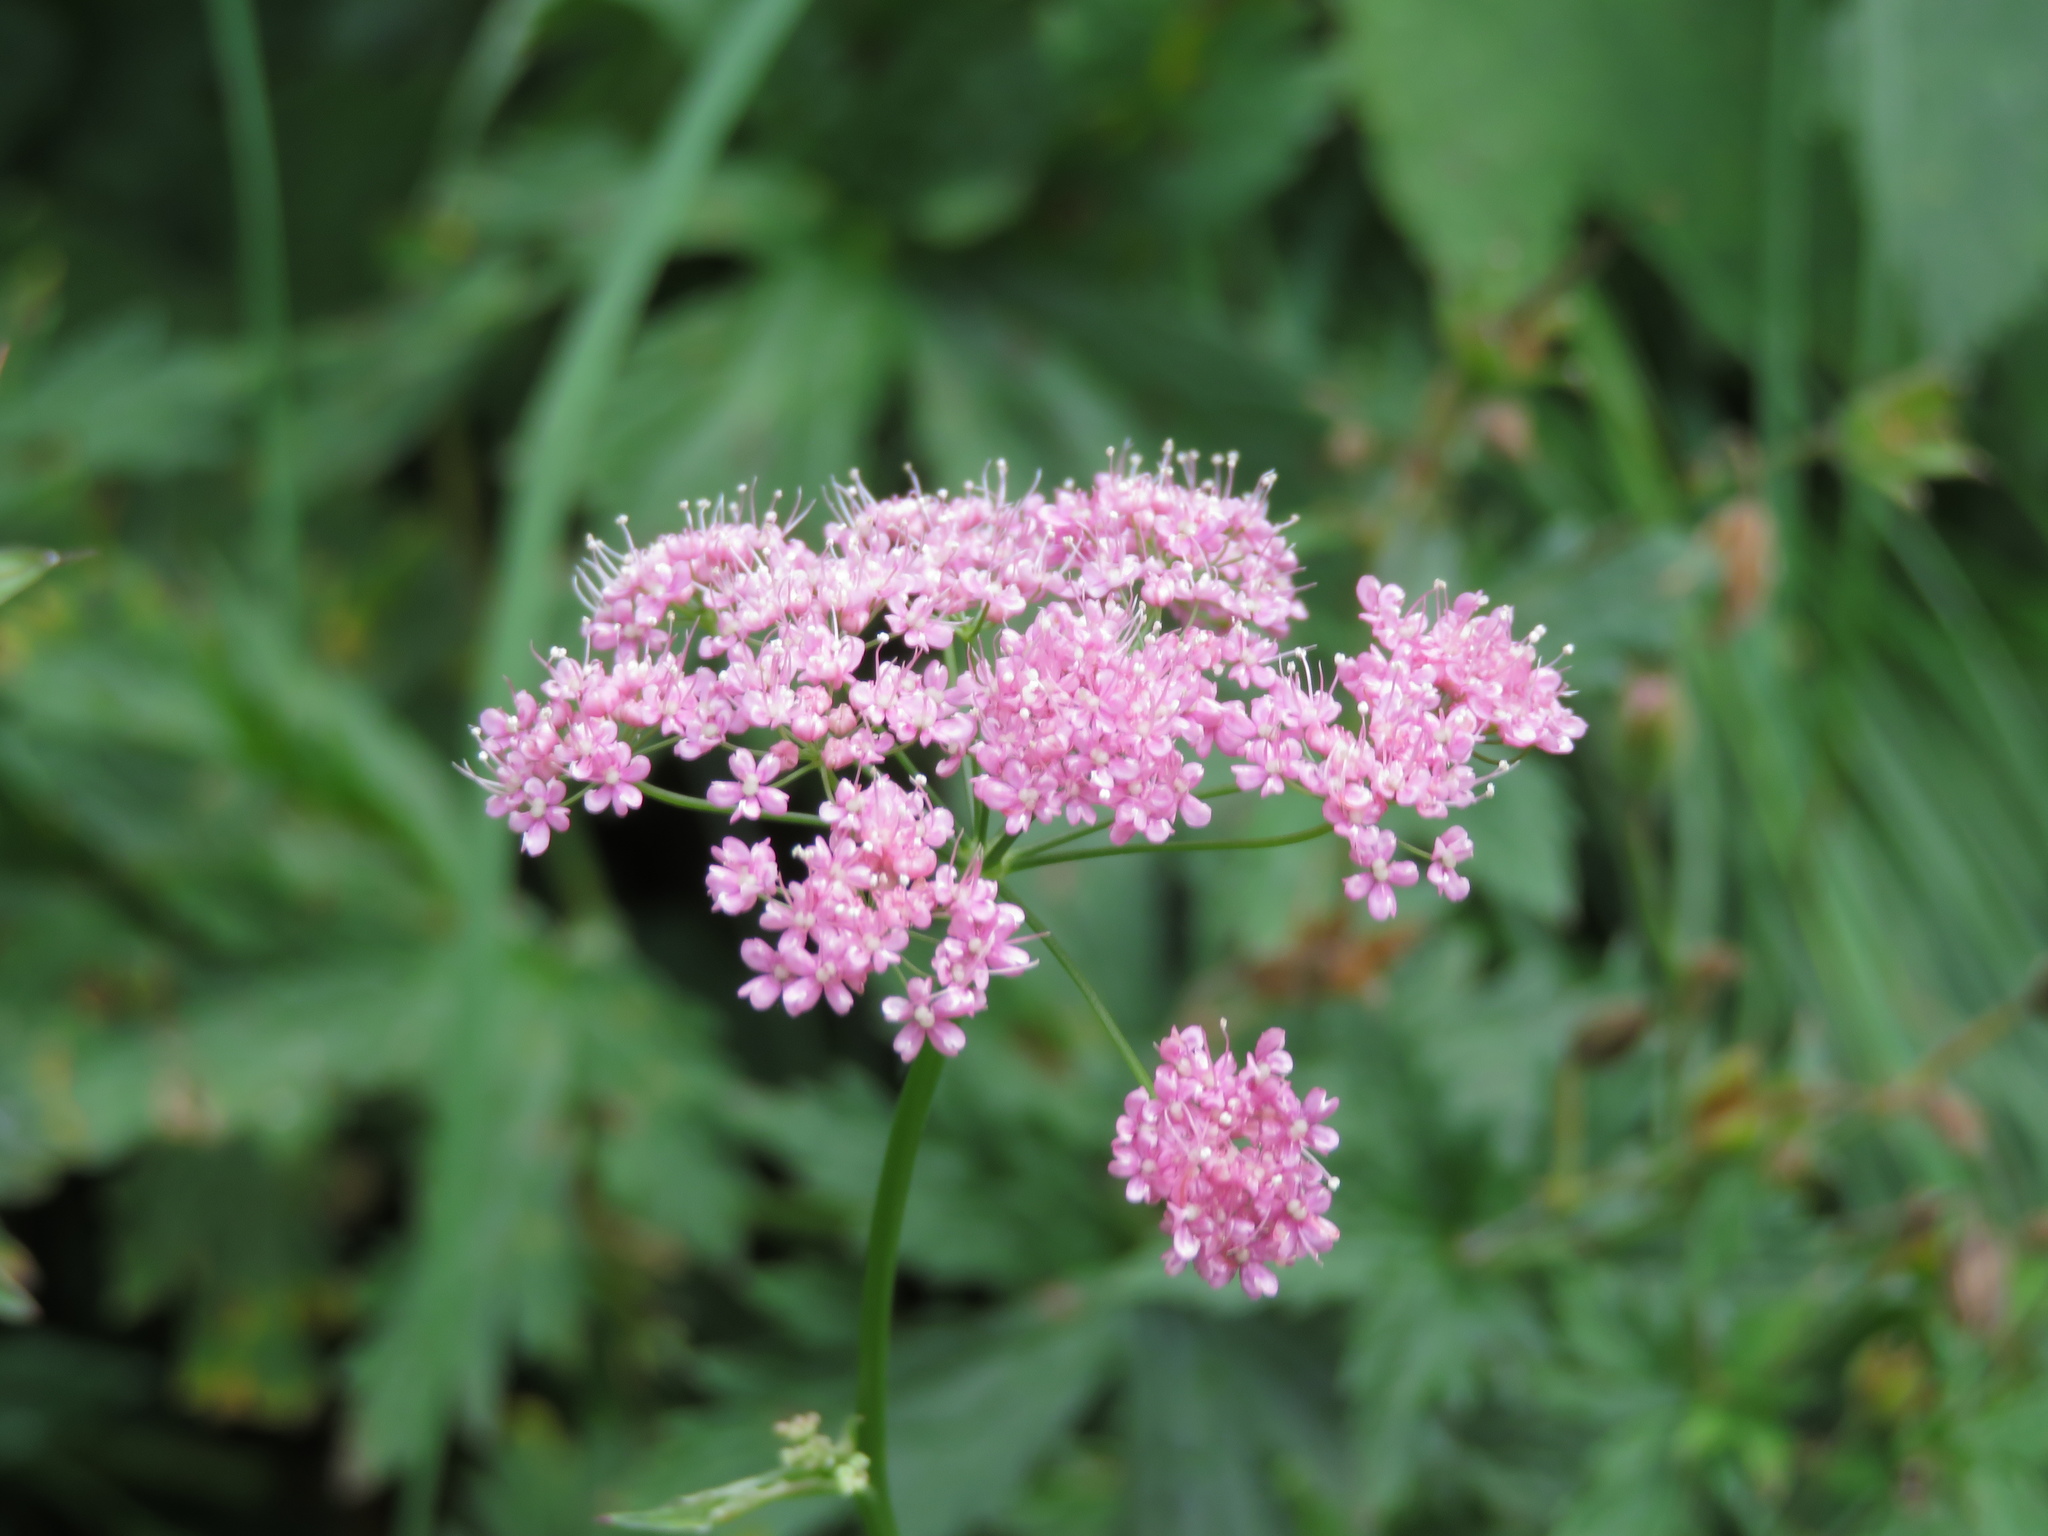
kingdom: Plantae
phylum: Tracheophyta
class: Magnoliopsida
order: Apiales
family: Apiaceae
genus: Pimpinella
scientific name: Pimpinella major
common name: Greater burnet-saxifrage
